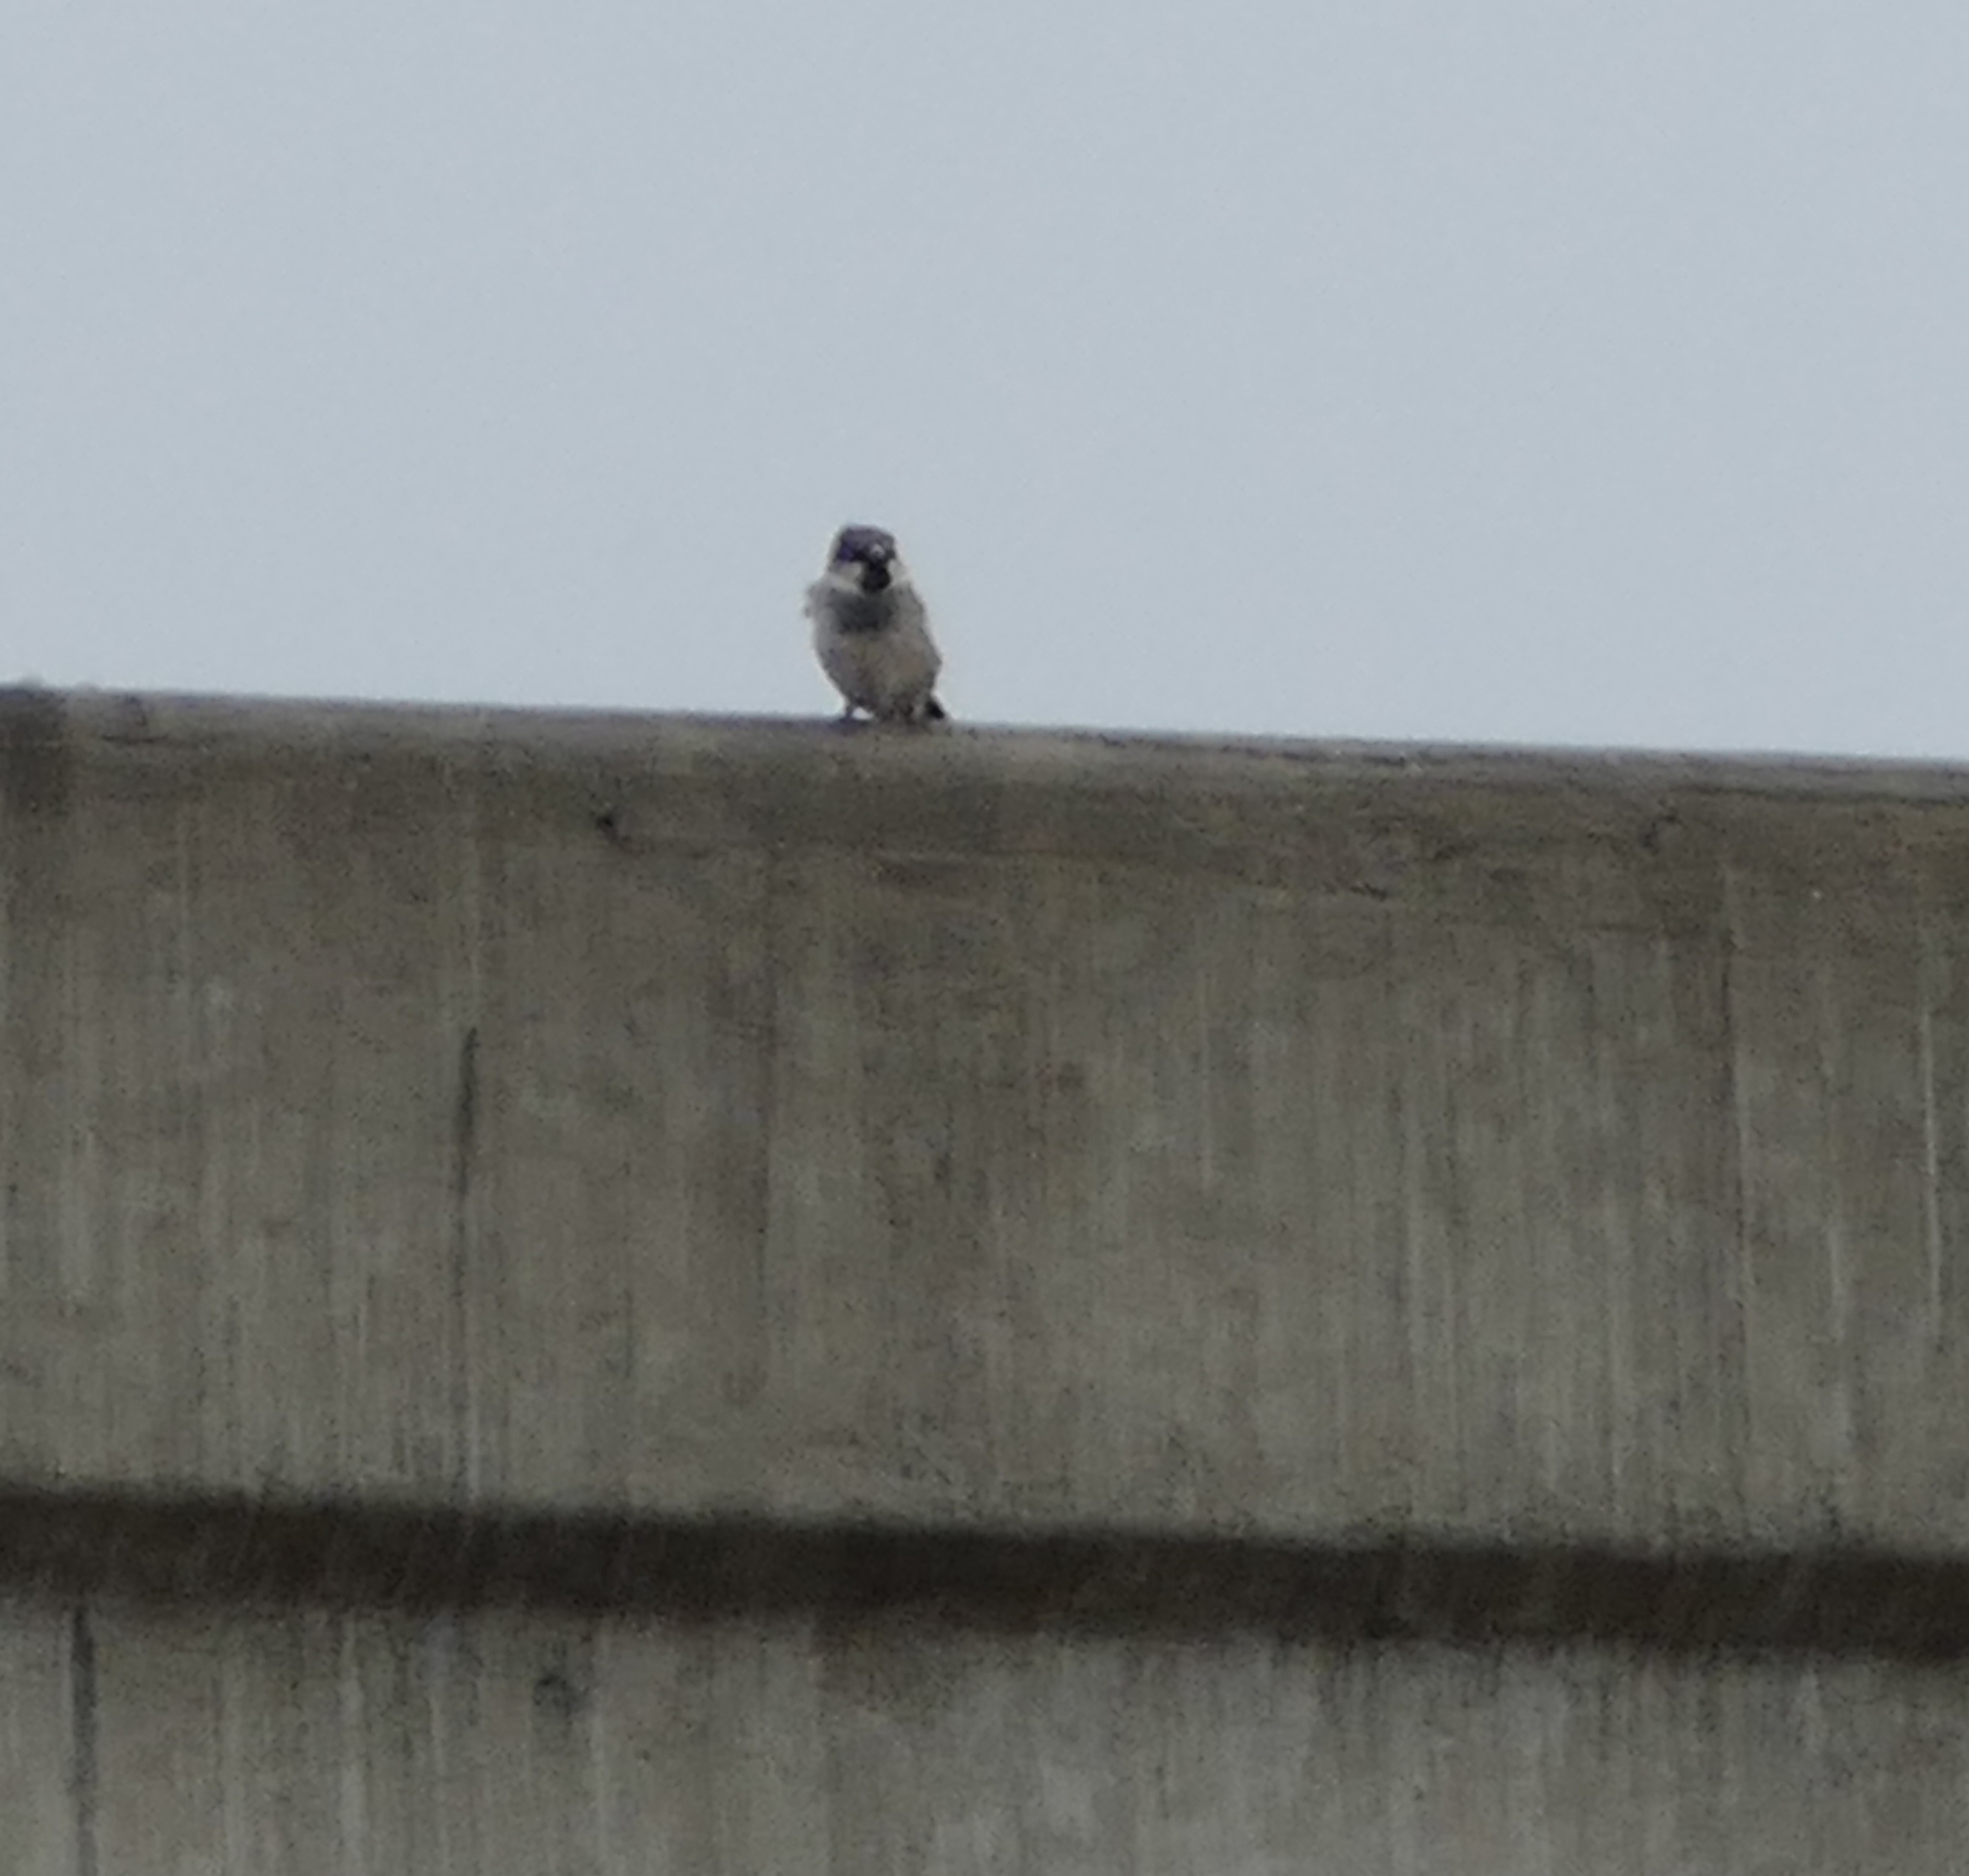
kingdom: Animalia
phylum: Chordata
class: Aves
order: Passeriformes
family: Passeridae
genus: Passer
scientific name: Passer domesticus
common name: House sparrow
